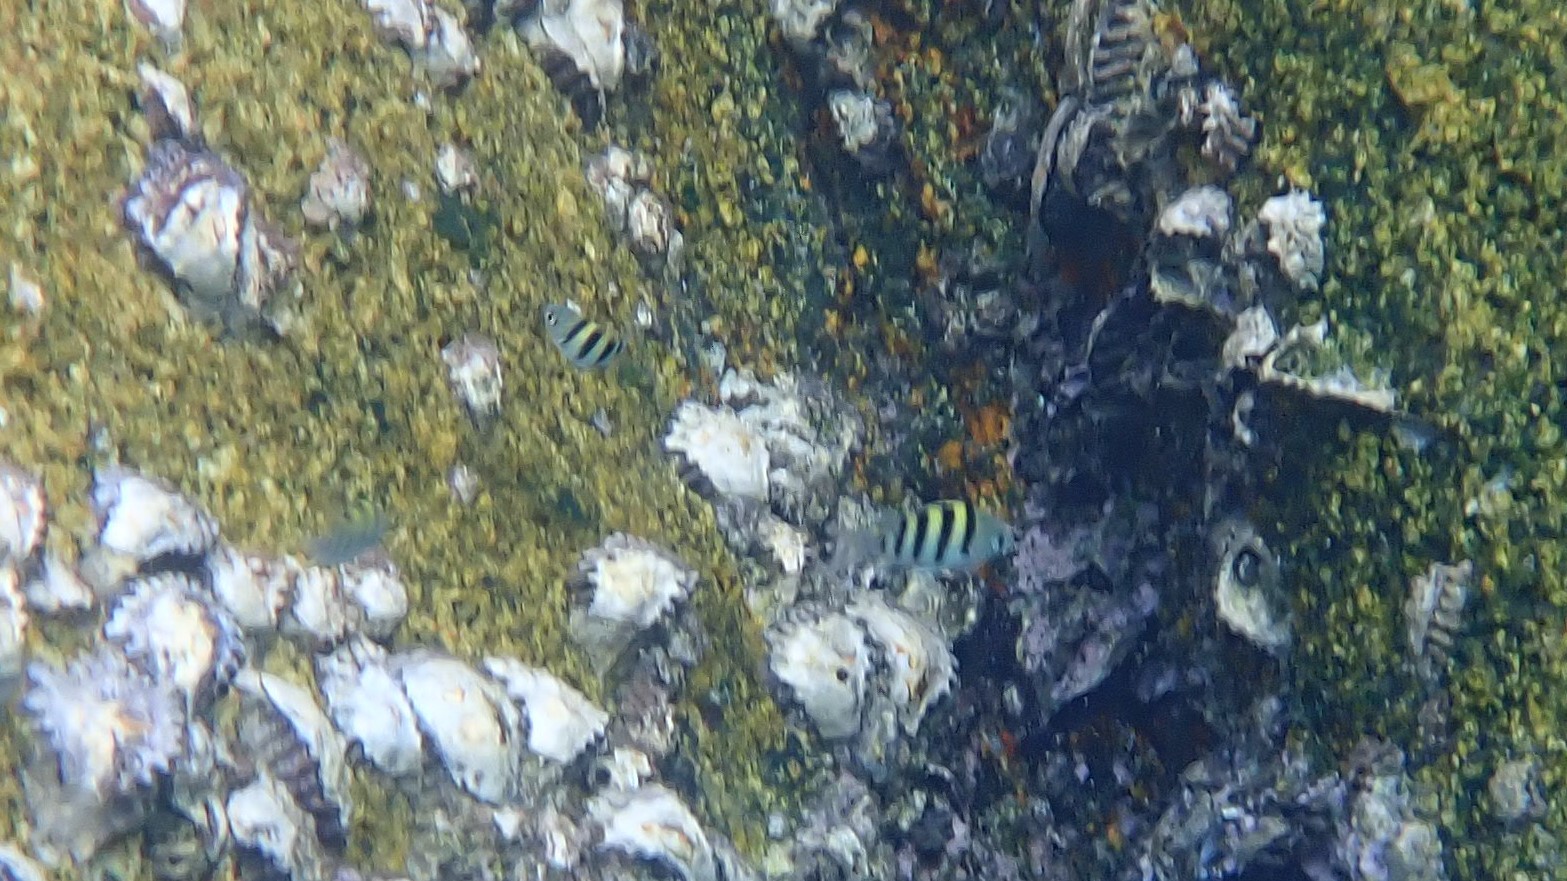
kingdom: Animalia
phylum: Chordata
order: Perciformes
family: Pomacentridae
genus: Abudefduf
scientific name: Abudefduf vaigiensis
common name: Indo-pacific sergeant
